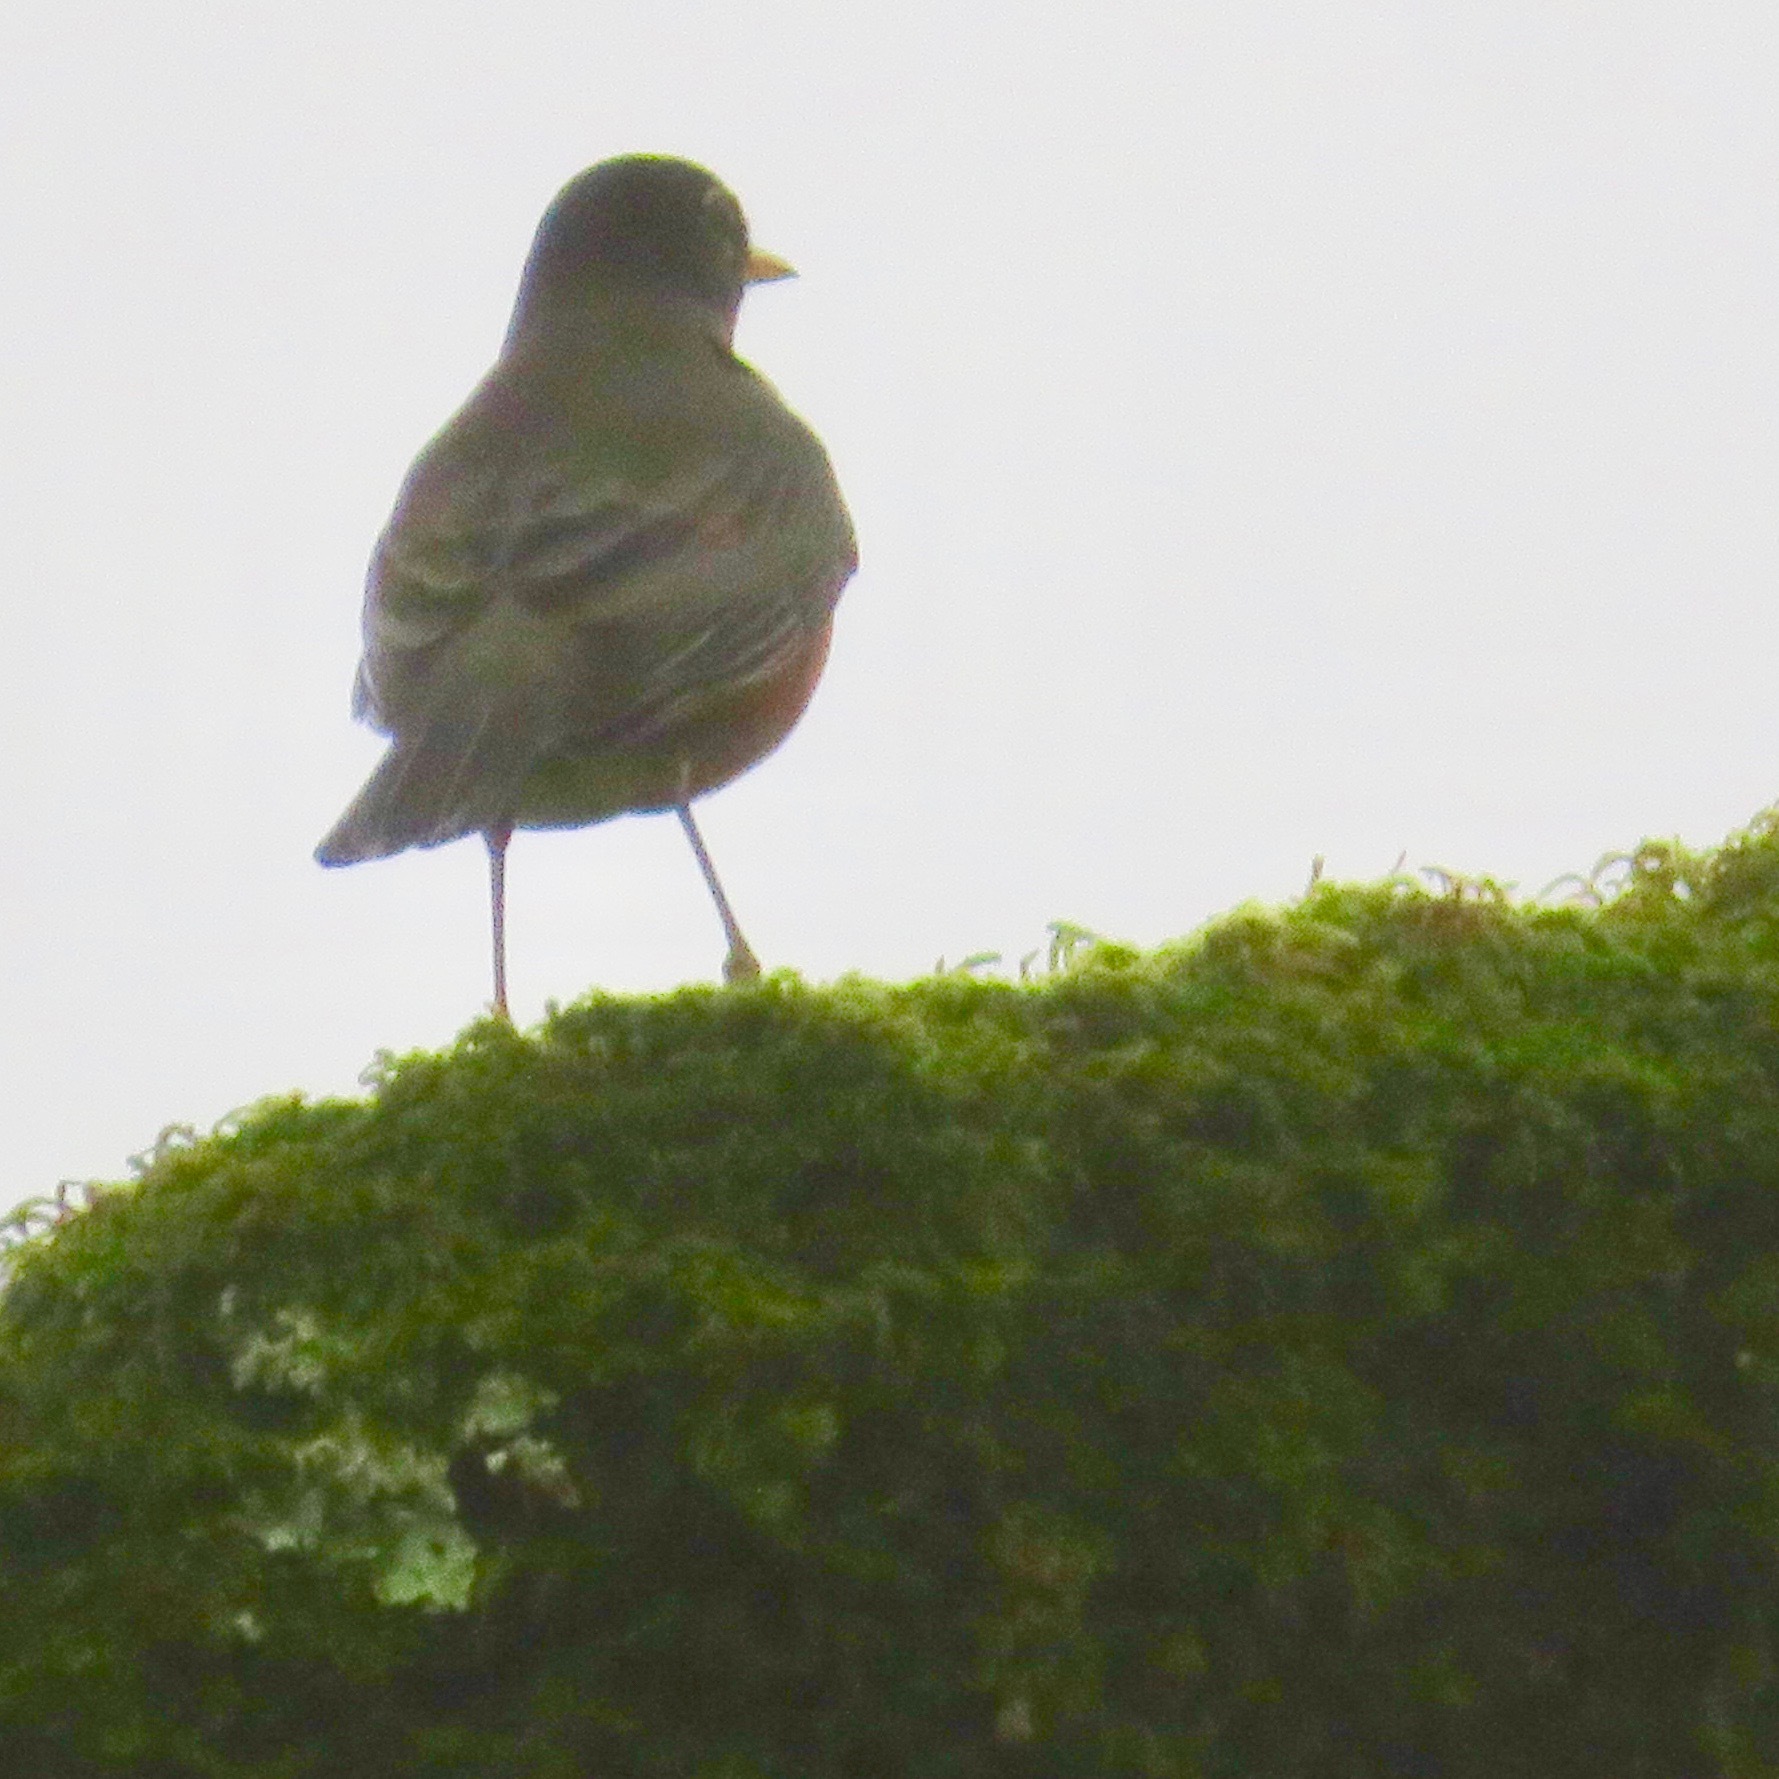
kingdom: Animalia
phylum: Chordata
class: Aves
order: Passeriformes
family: Turdidae
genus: Turdus
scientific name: Turdus migratorius
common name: American robin
